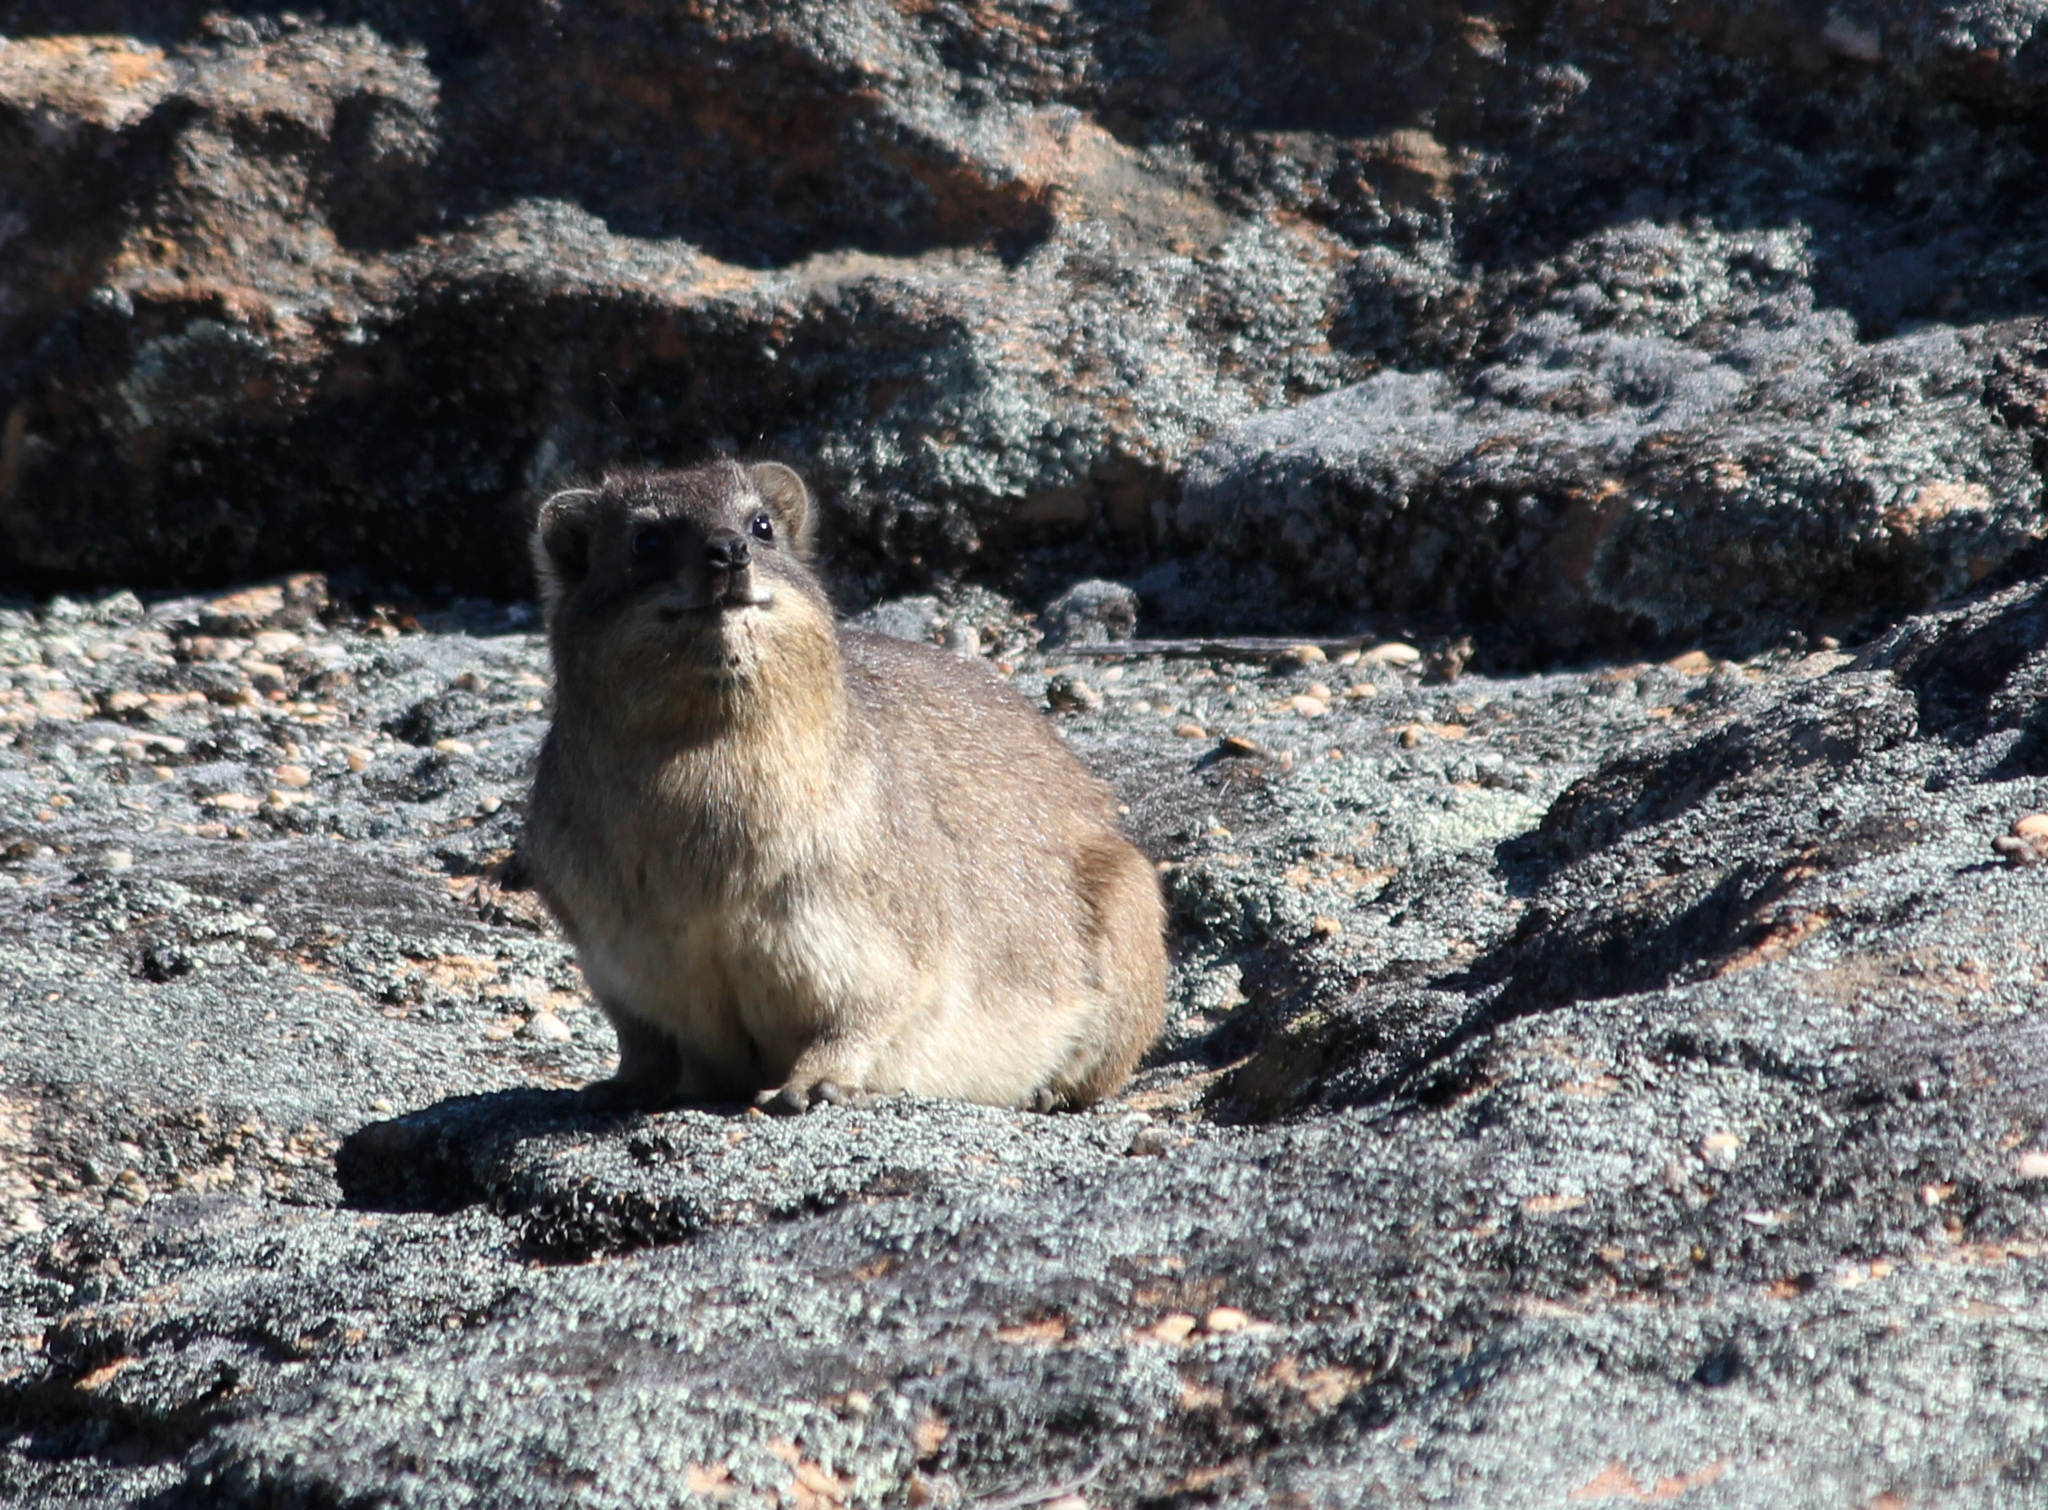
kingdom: Animalia
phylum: Chordata
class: Mammalia
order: Hyracoidea
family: Procaviidae
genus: Procavia
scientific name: Procavia capensis
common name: Rock hyrax
